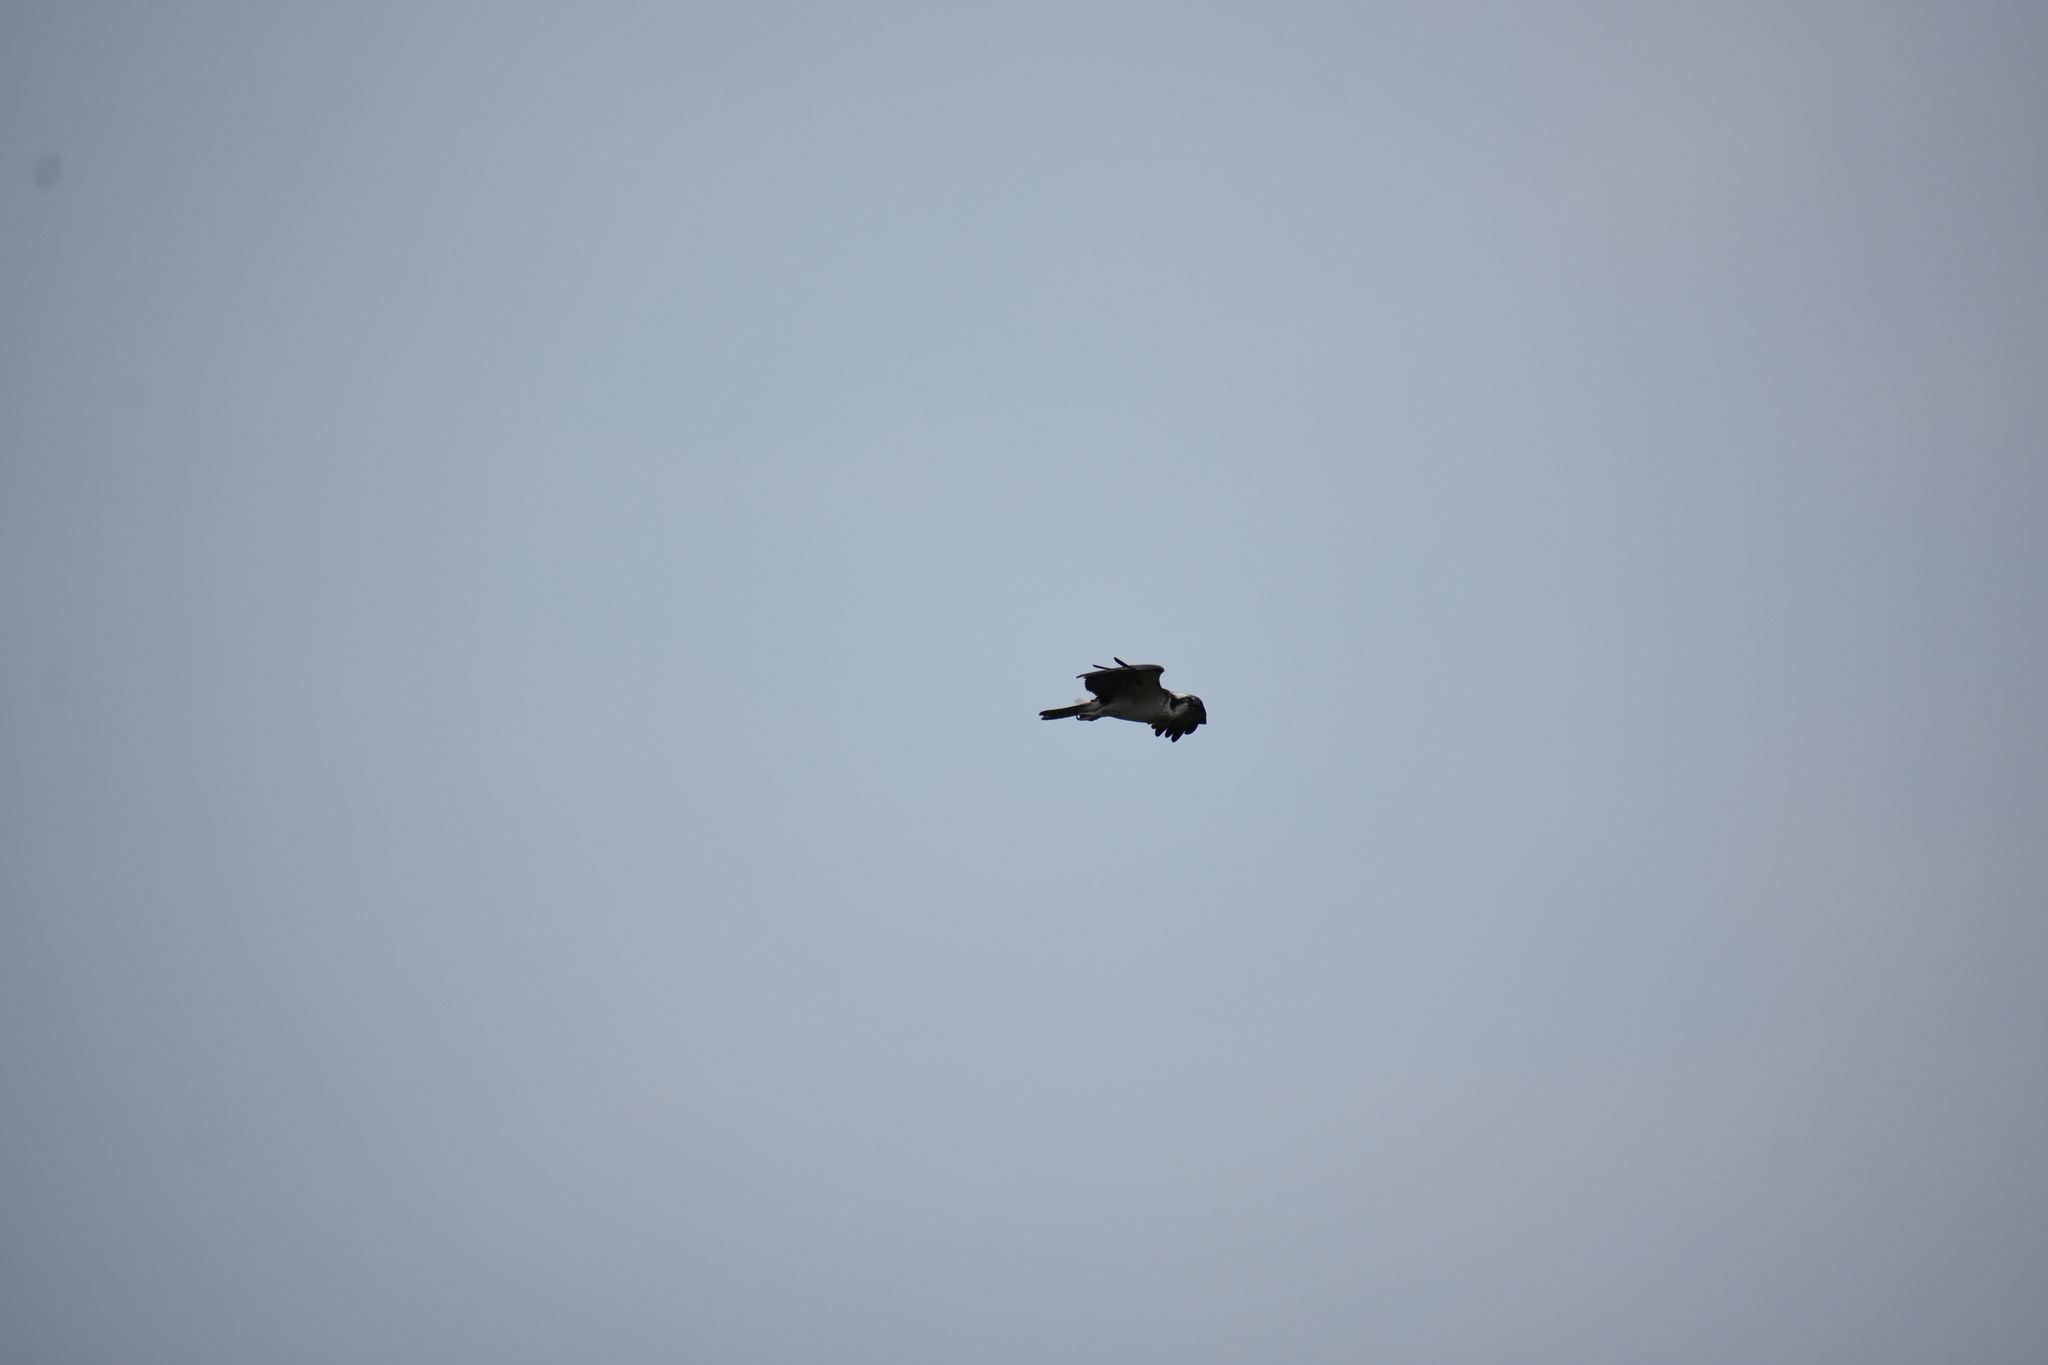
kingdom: Animalia
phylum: Chordata
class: Aves
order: Accipitriformes
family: Pandionidae
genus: Pandion
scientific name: Pandion haliaetus
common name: Osprey
